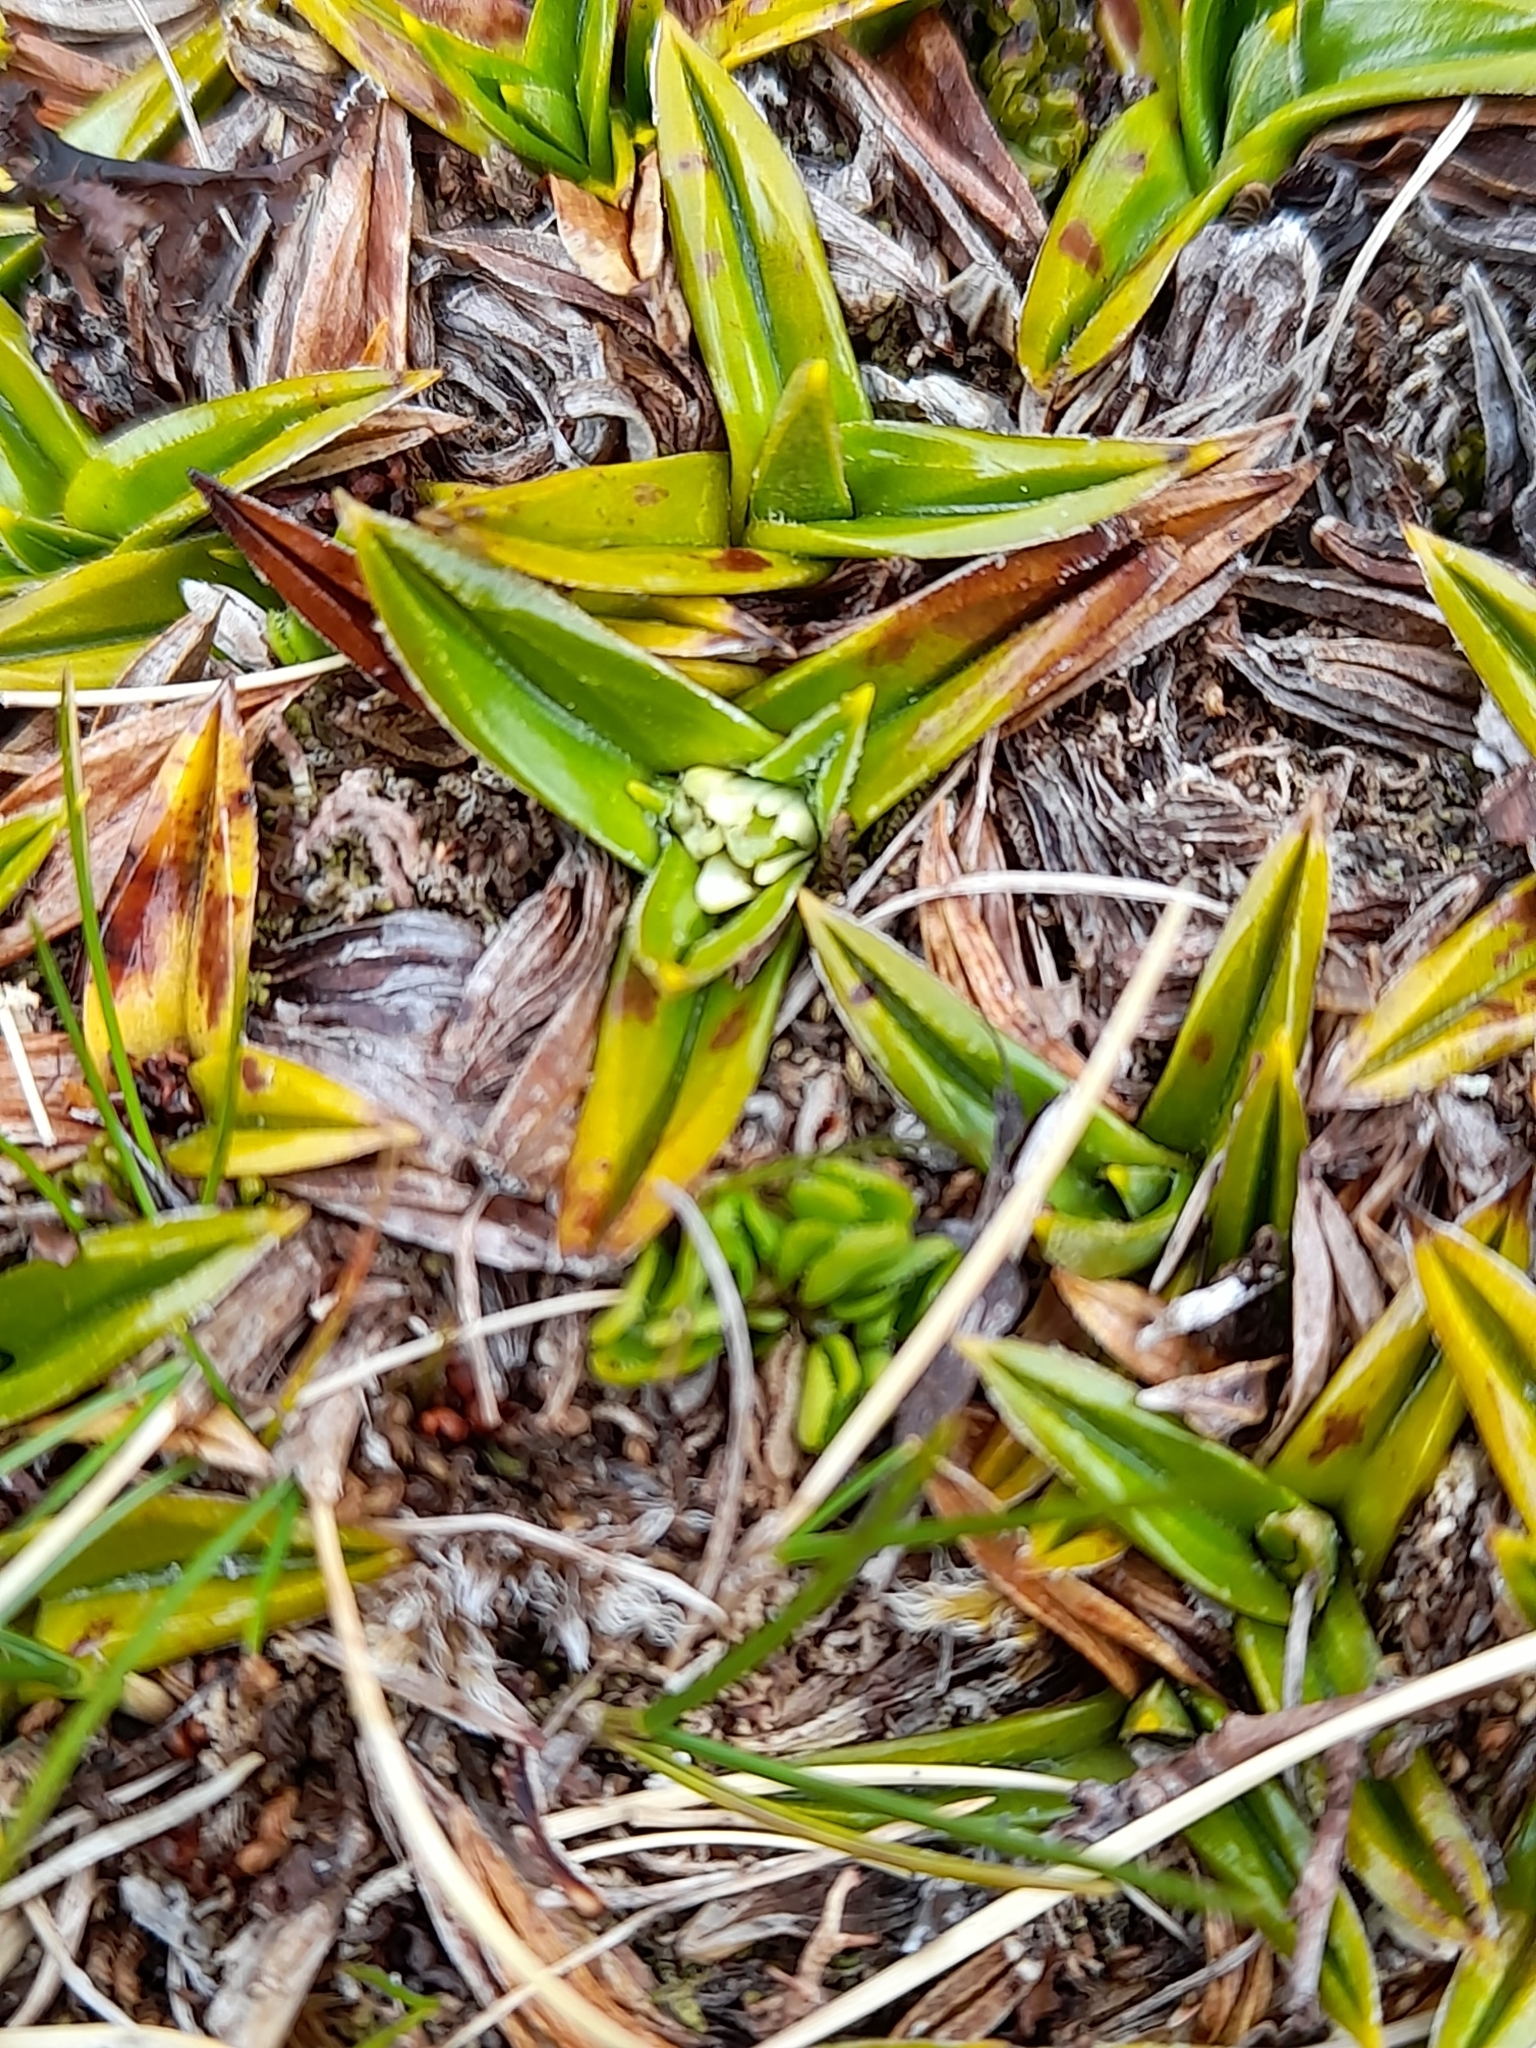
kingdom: Plantae
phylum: Tracheophyta
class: Liliopsida
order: Asparagales
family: Asteliaceae
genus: Astelia
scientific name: Astelia pumila
